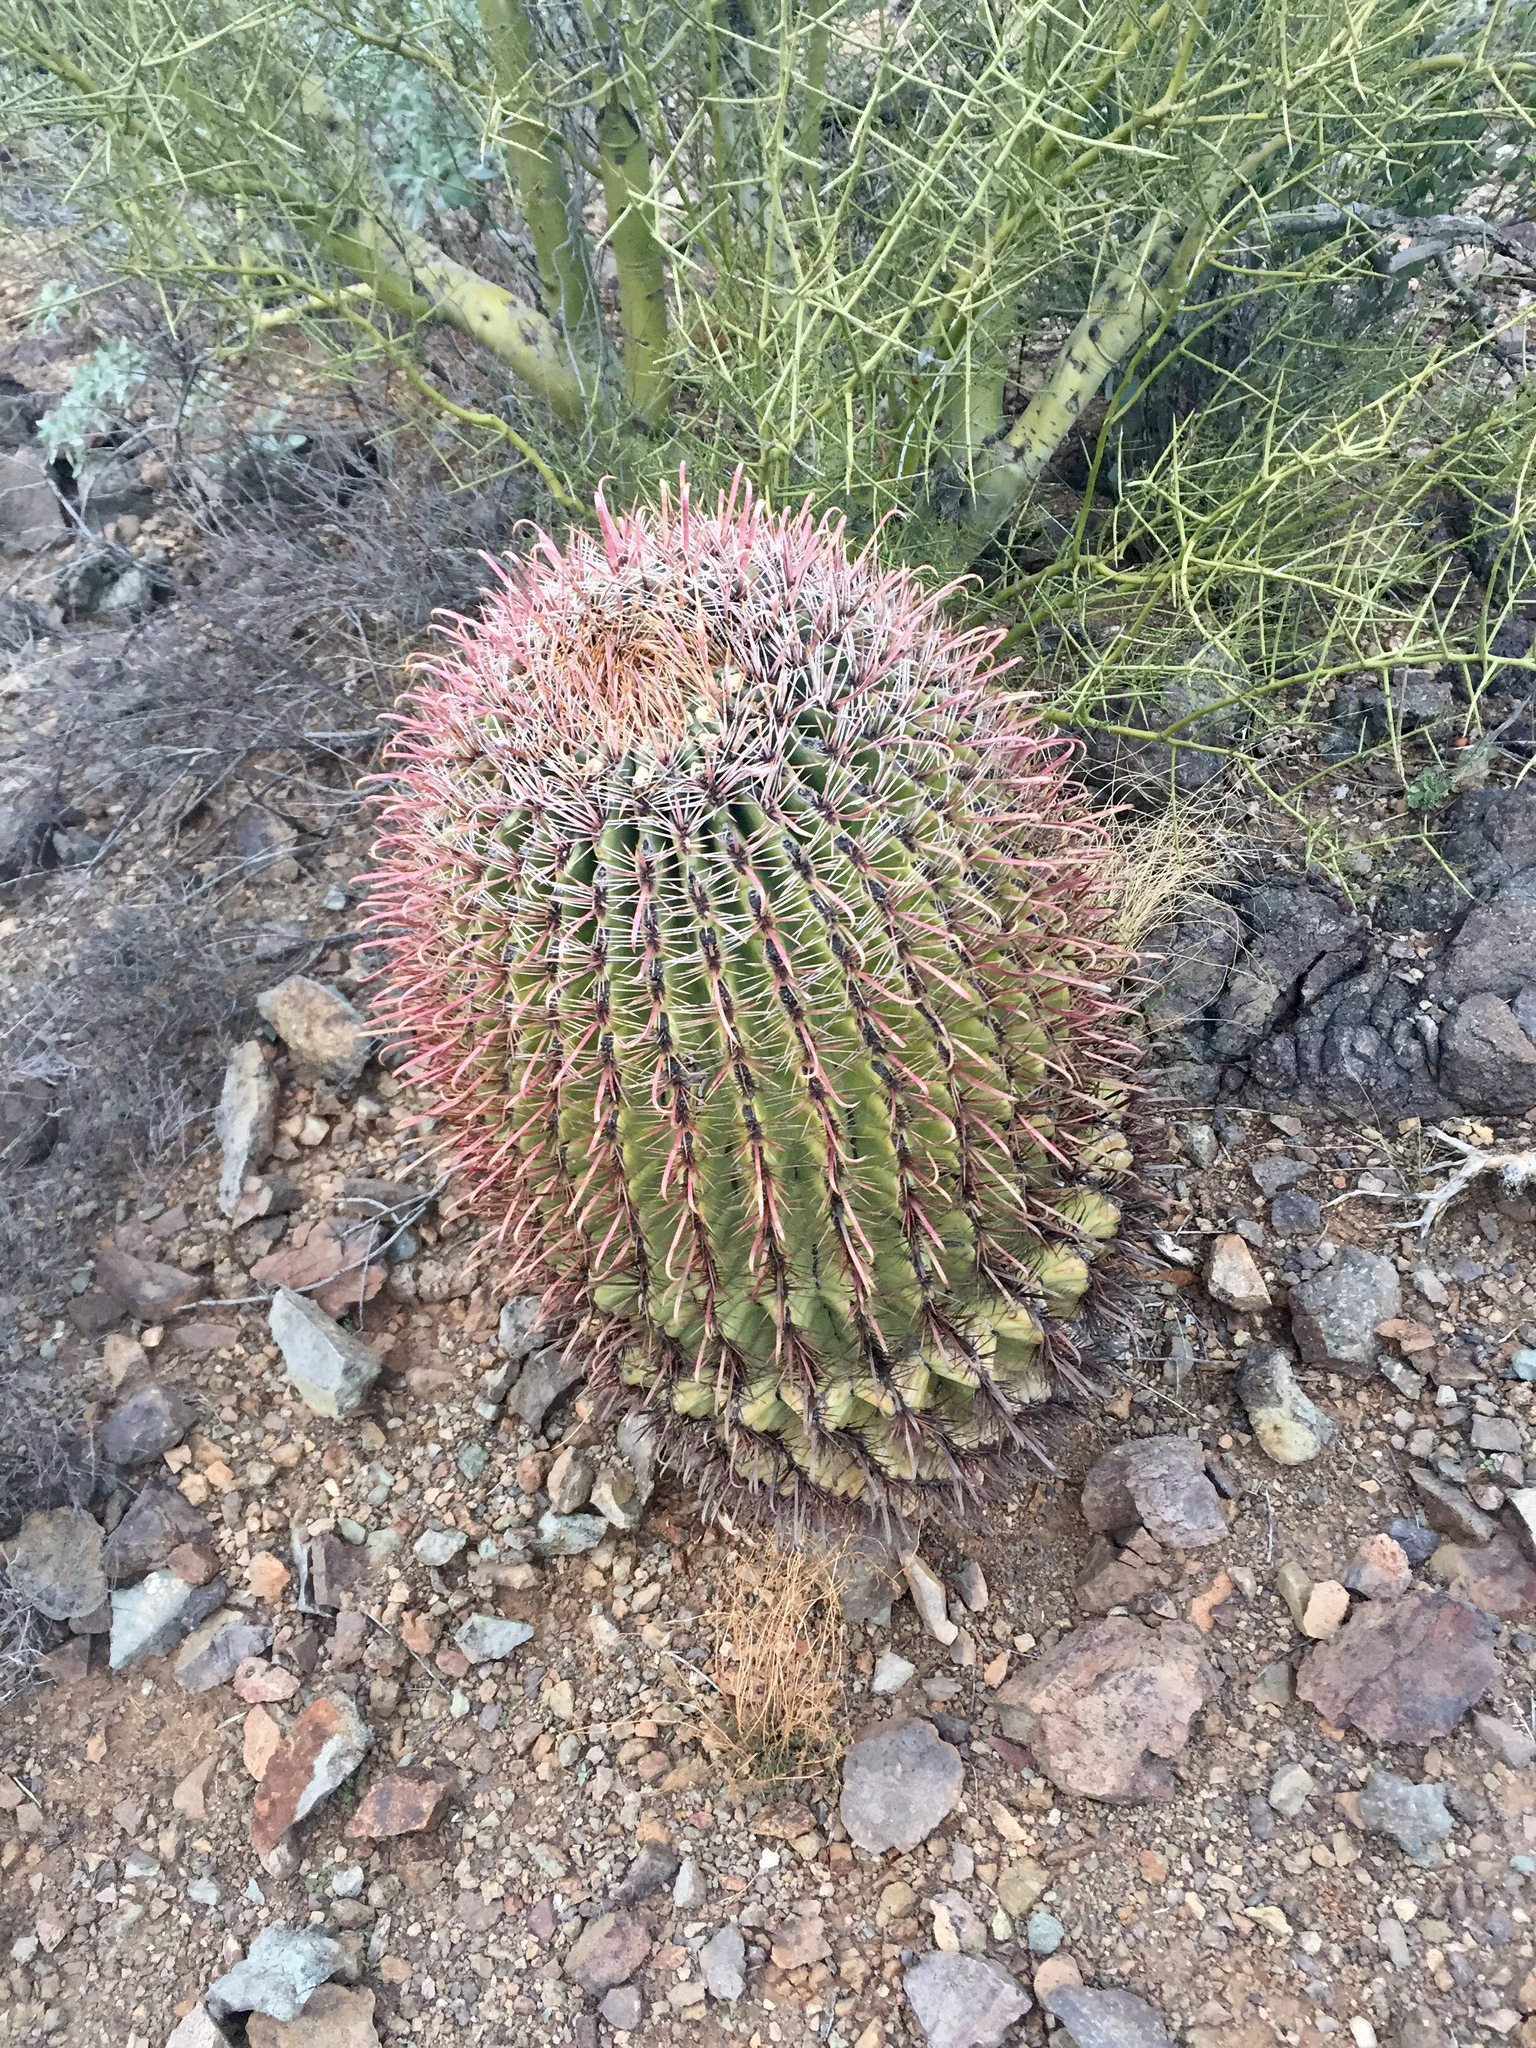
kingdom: Plantae
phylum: Tracheophyta
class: Magnoliopsida
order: Caryophyllales
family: Cactaceae
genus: Ferocactus
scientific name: Ferocactus wislizeni
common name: Candy barrel cactus
